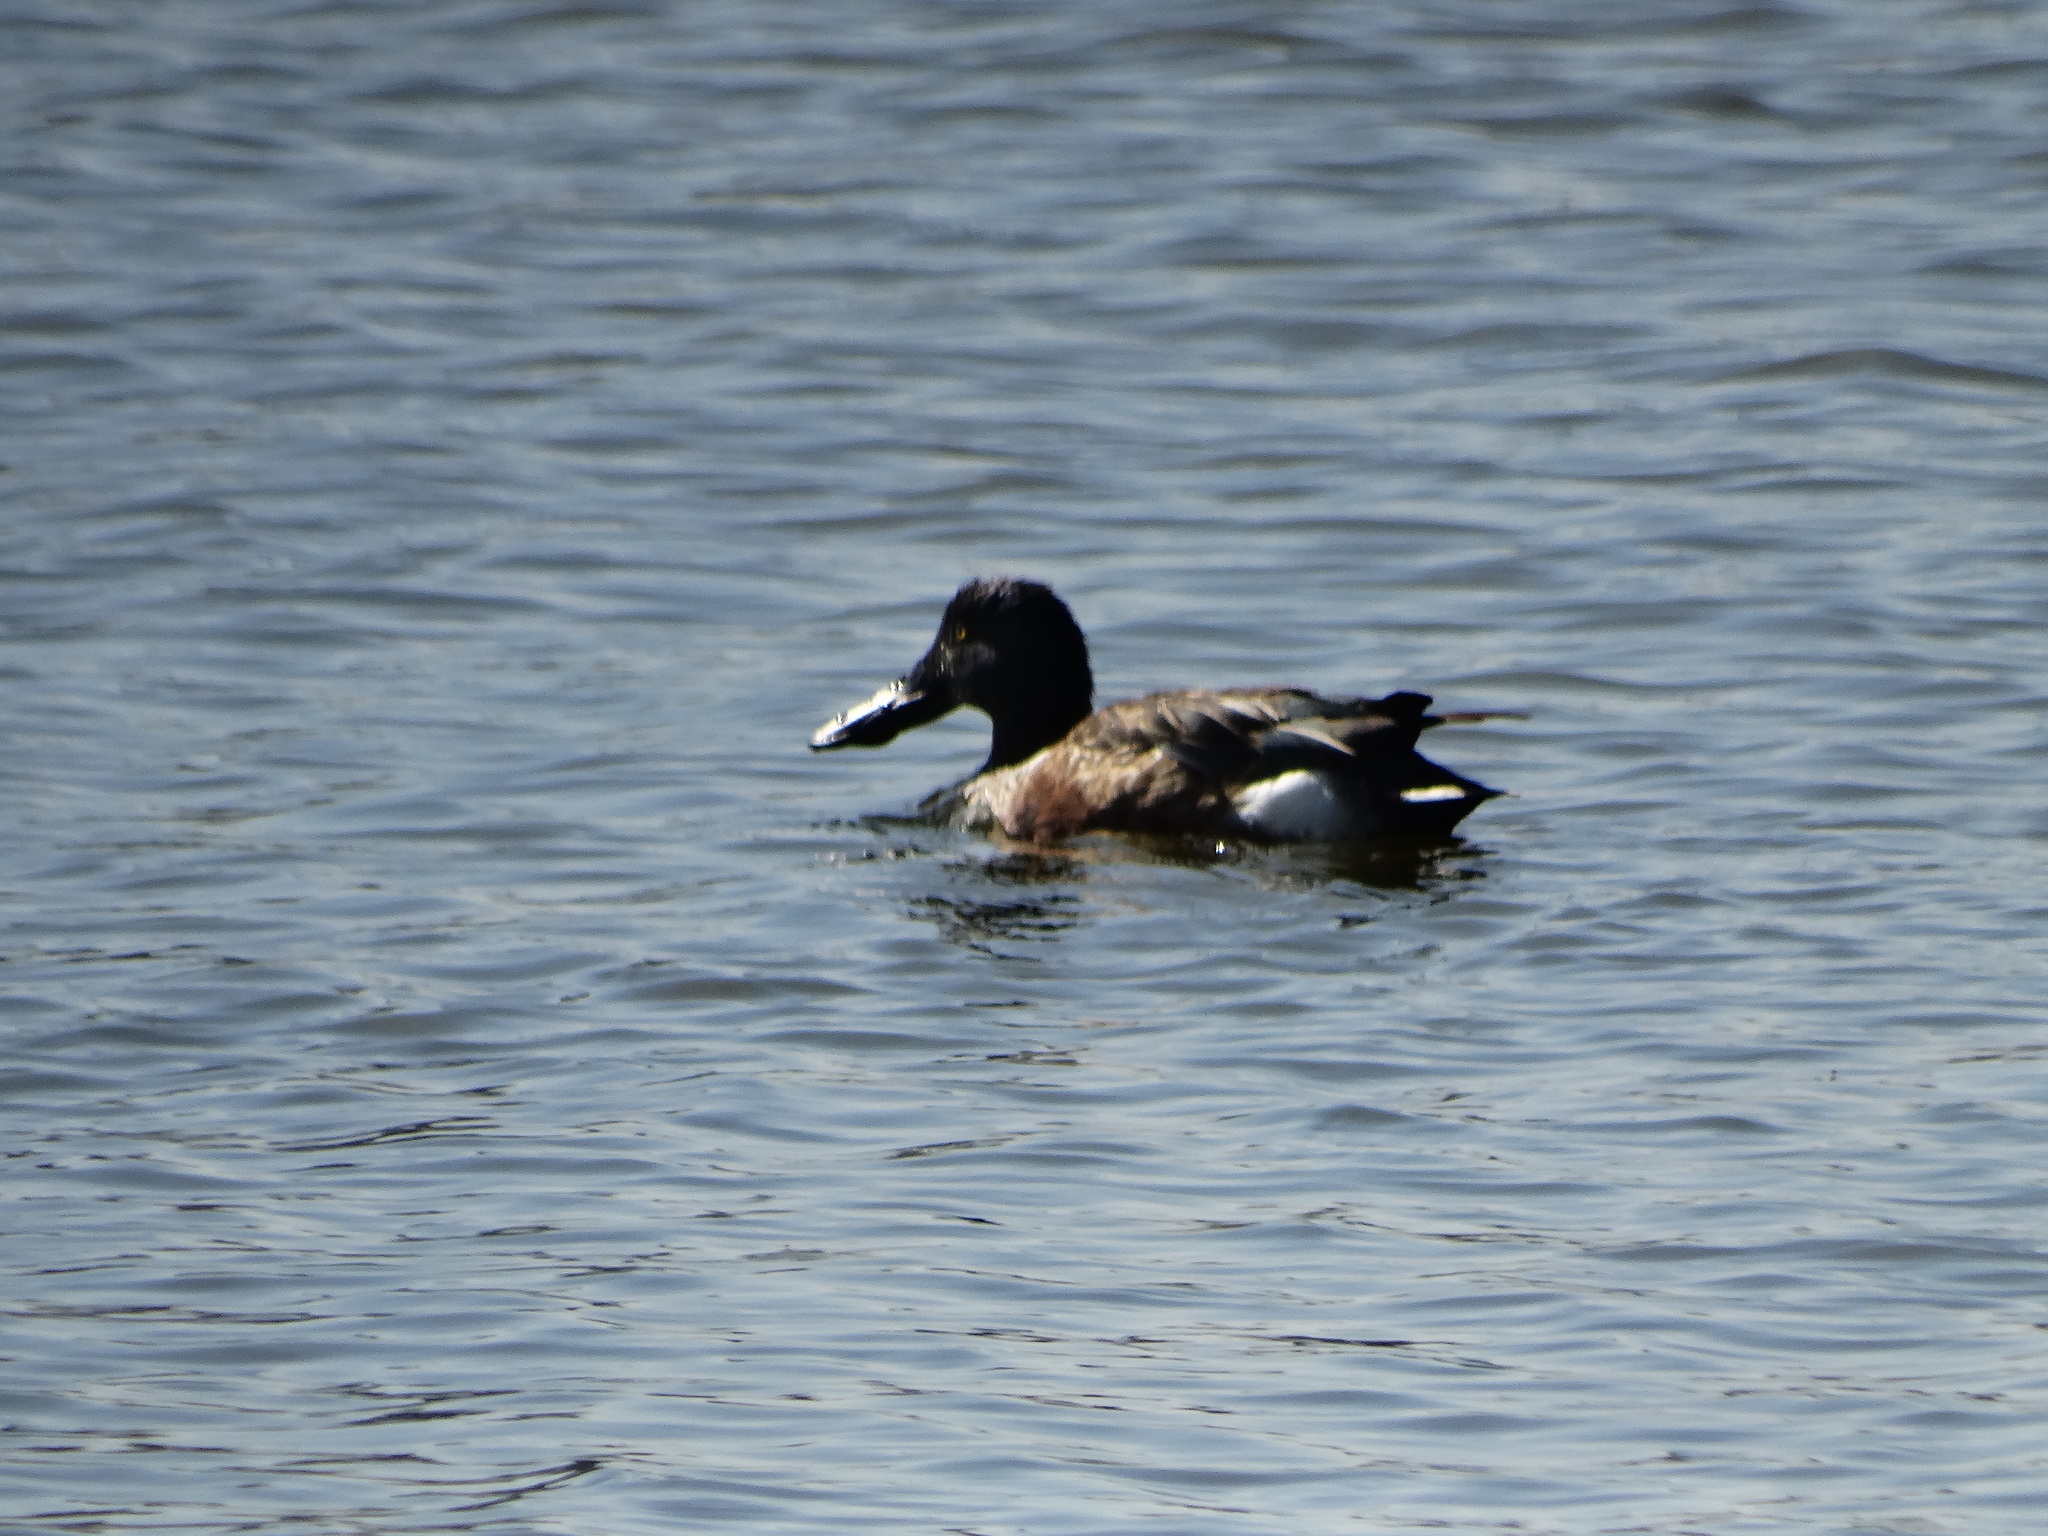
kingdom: Animalia
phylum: Chordata
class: Aves
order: Anseriformes
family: Anatidae
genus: Spatula
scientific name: Spatula clypeata
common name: Northern shoveler
